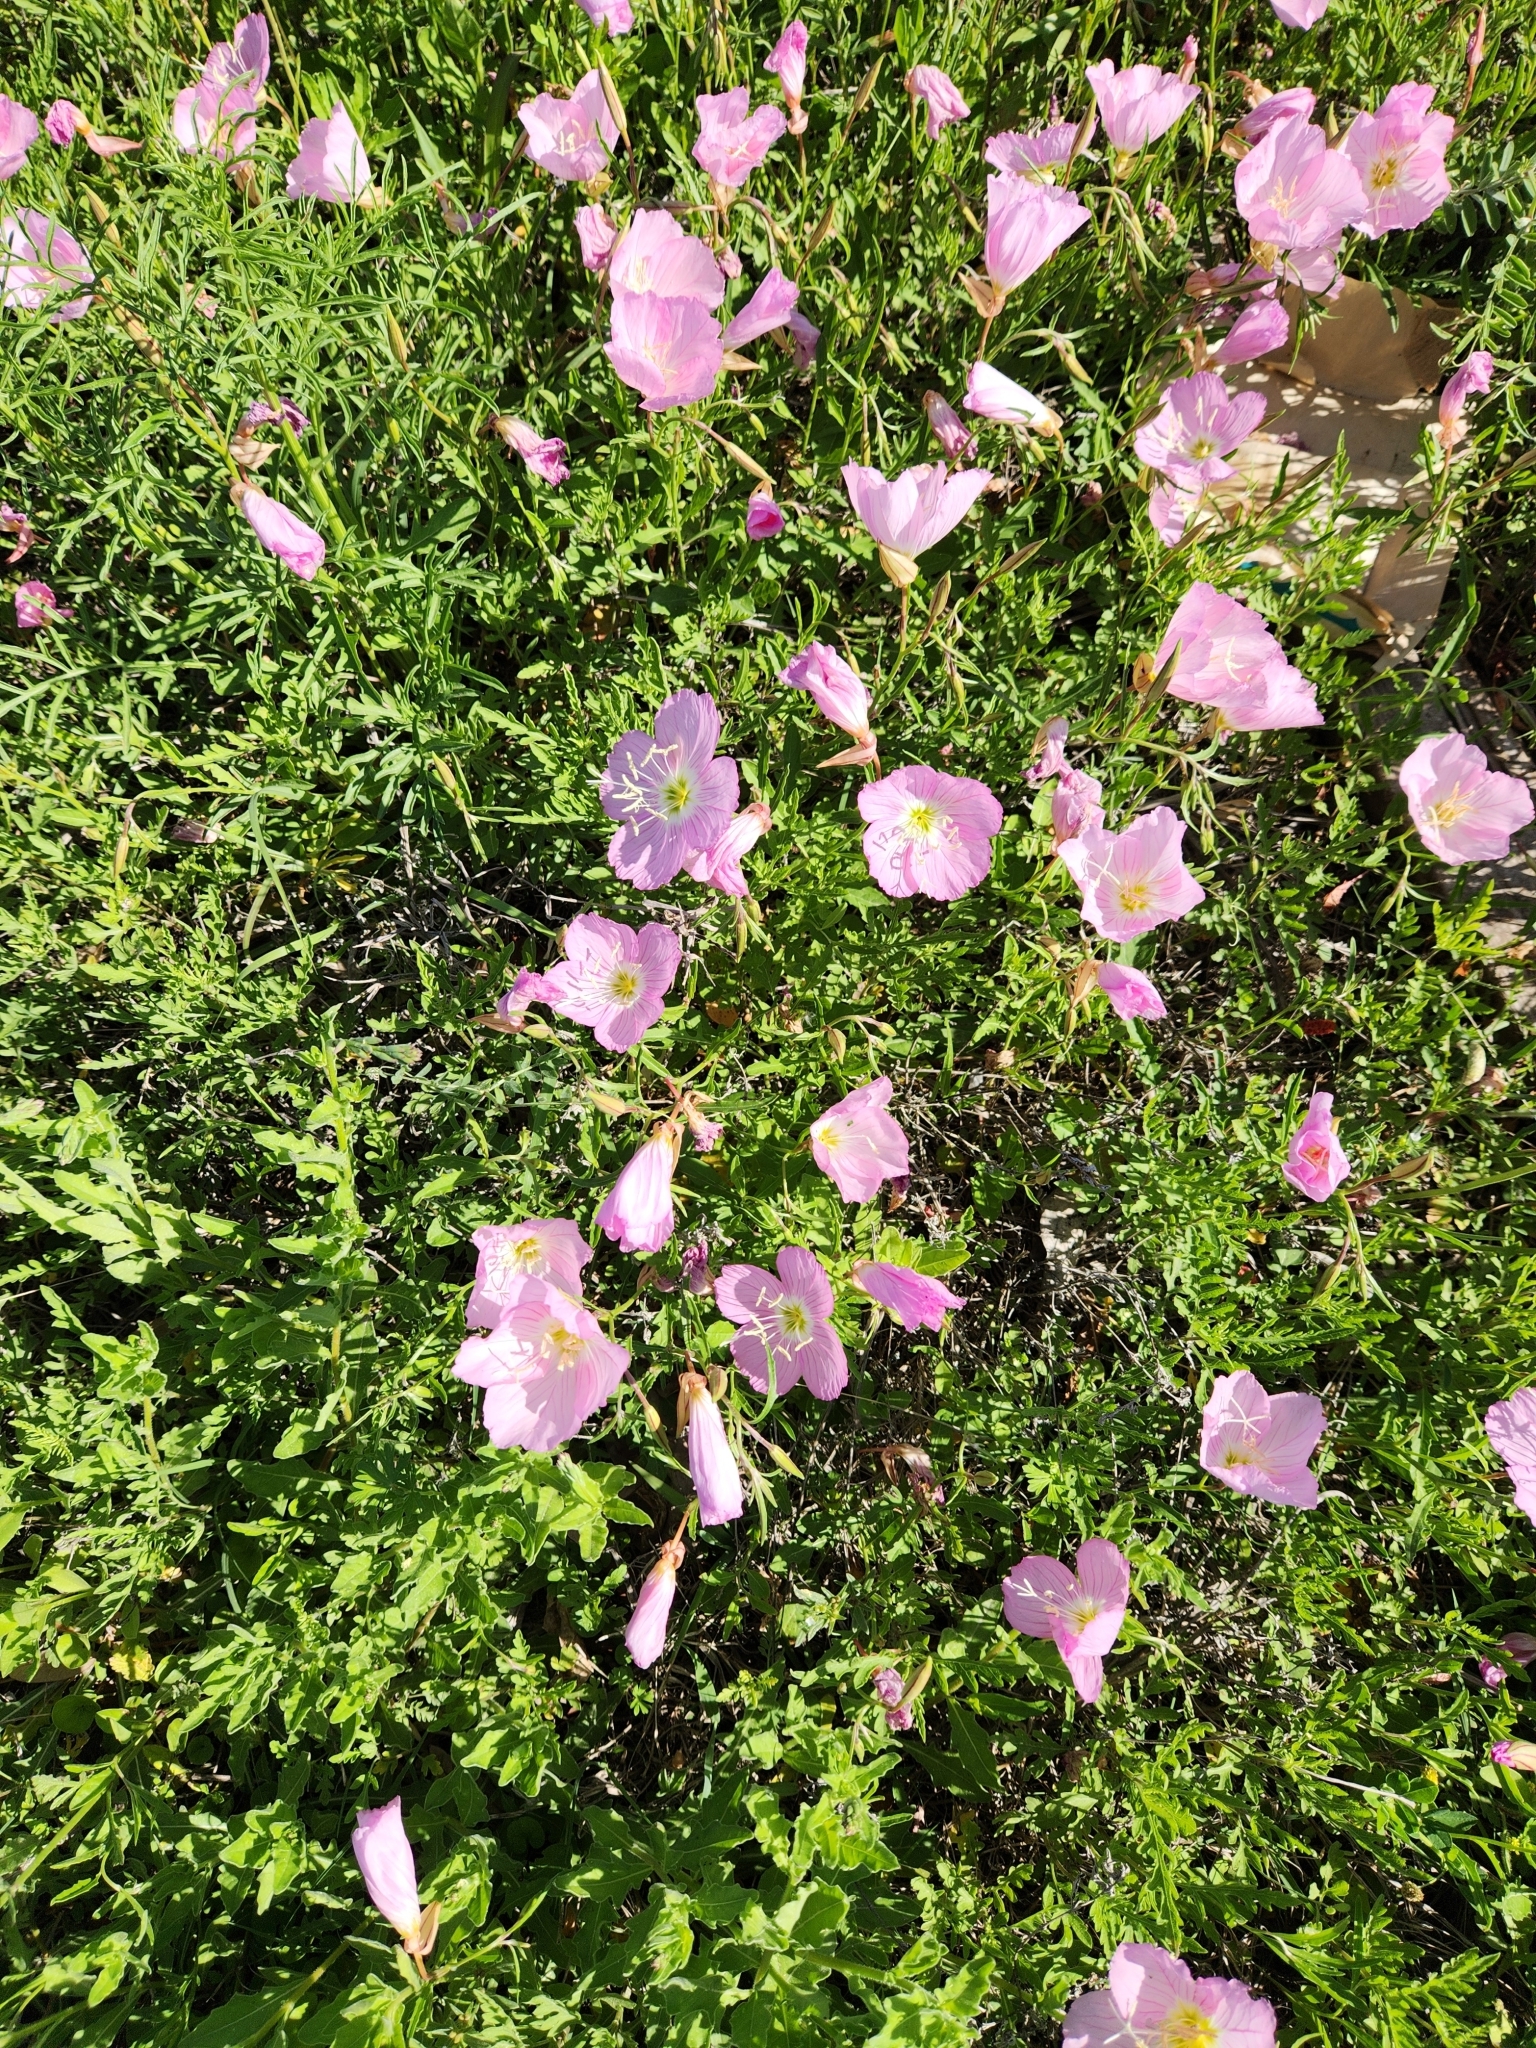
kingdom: Plantae
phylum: Tracheophyta
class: Magnoliopsida
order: Myrtales
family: Onagraceae
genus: Oenothera
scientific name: Oenothera speciosa
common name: White evening-primrose
